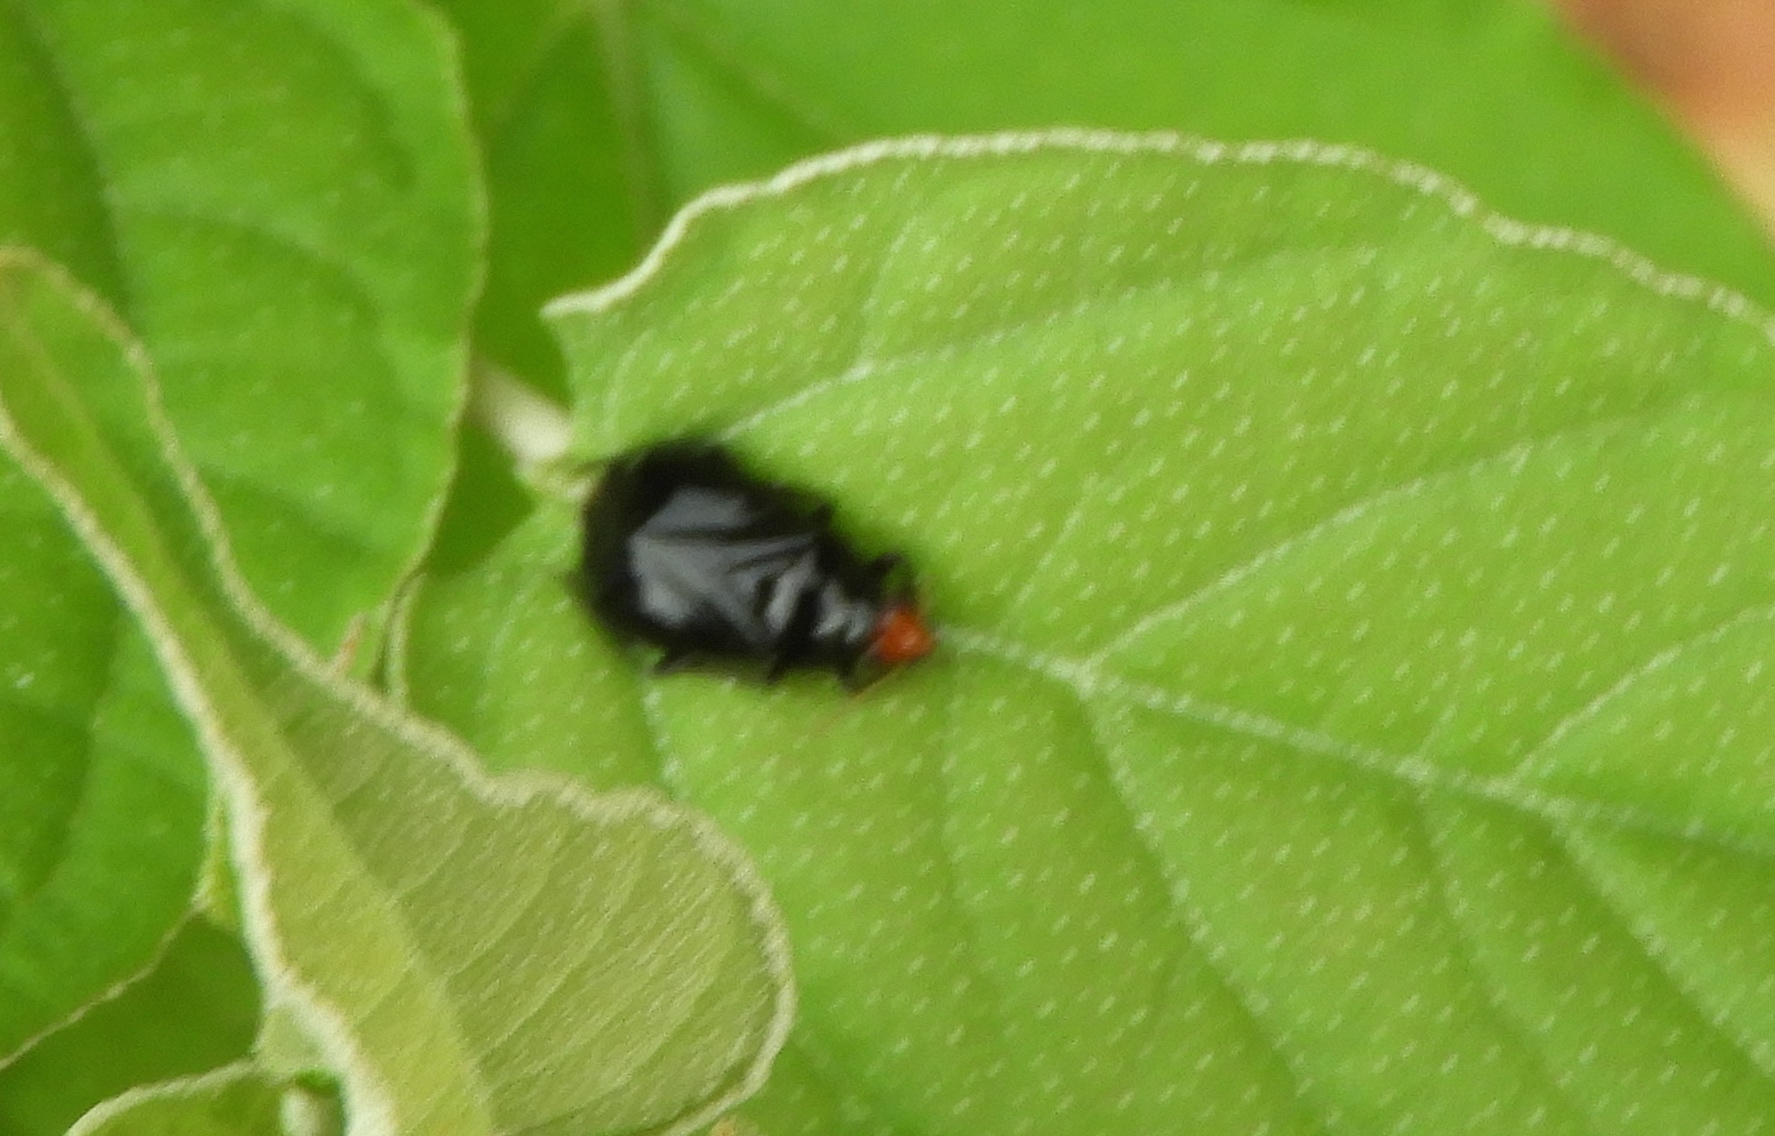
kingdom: Animalia
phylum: Arthropoda
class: Insecta
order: Hemiptera
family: Miridae
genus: Jornandinus
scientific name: Jornandinus grandis
